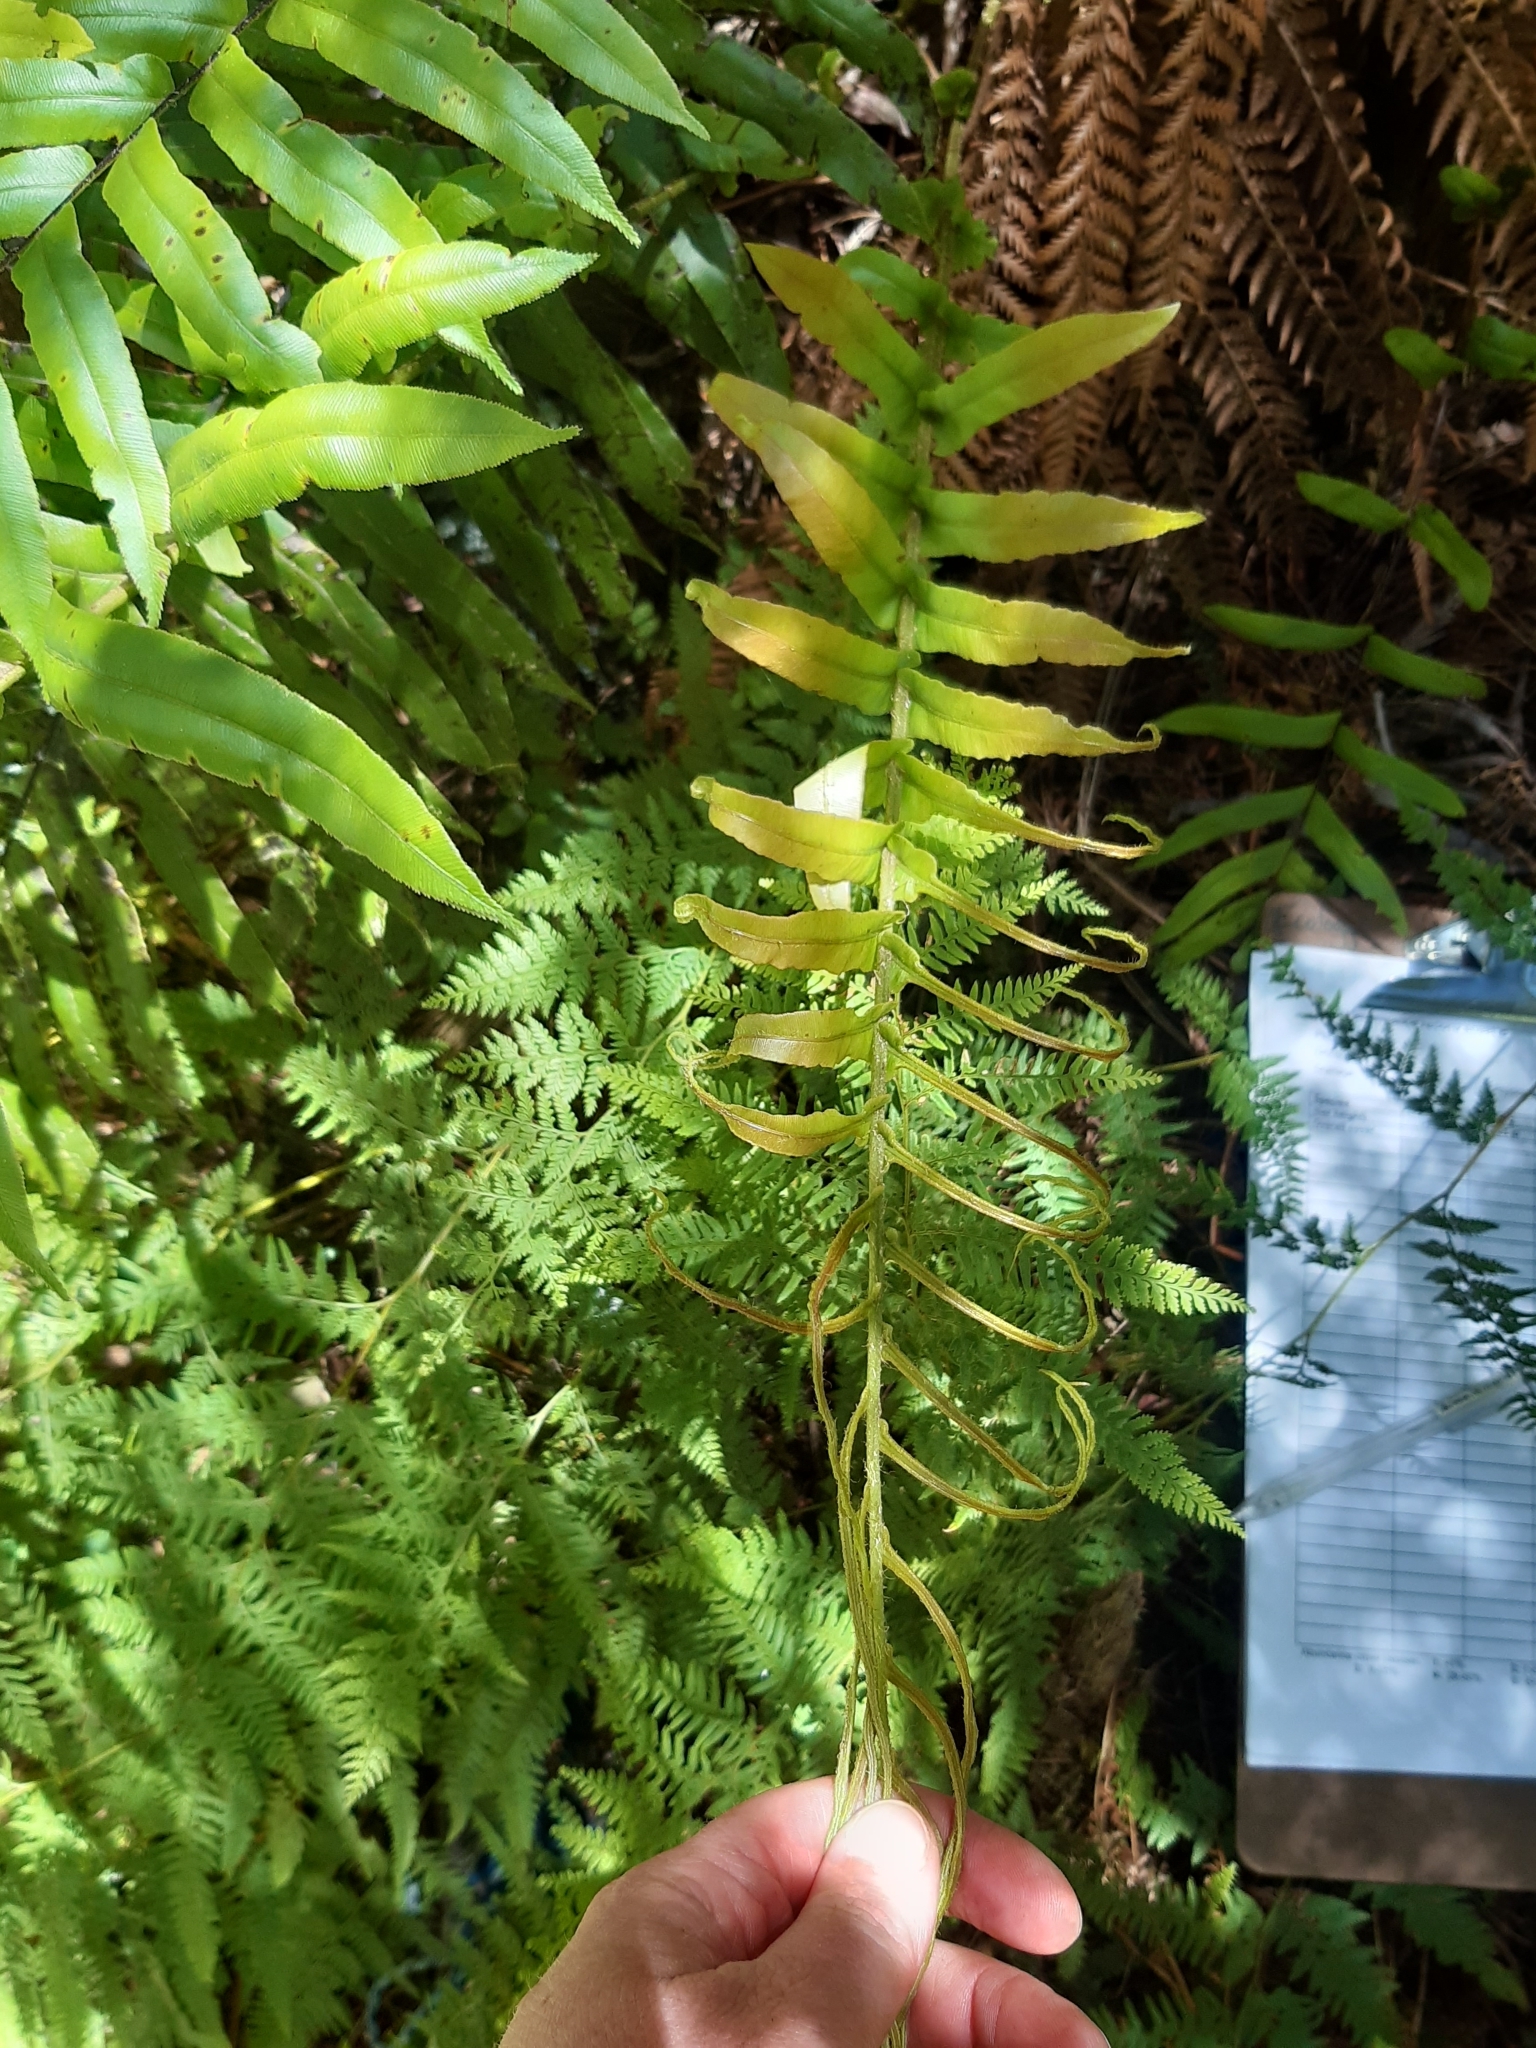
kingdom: Plantae
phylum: Tracheophyta
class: Polypodiopsida
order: Polypodiales
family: Blechnaceae
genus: Parablechnum
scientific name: Parablechnum novae-zelandiae
